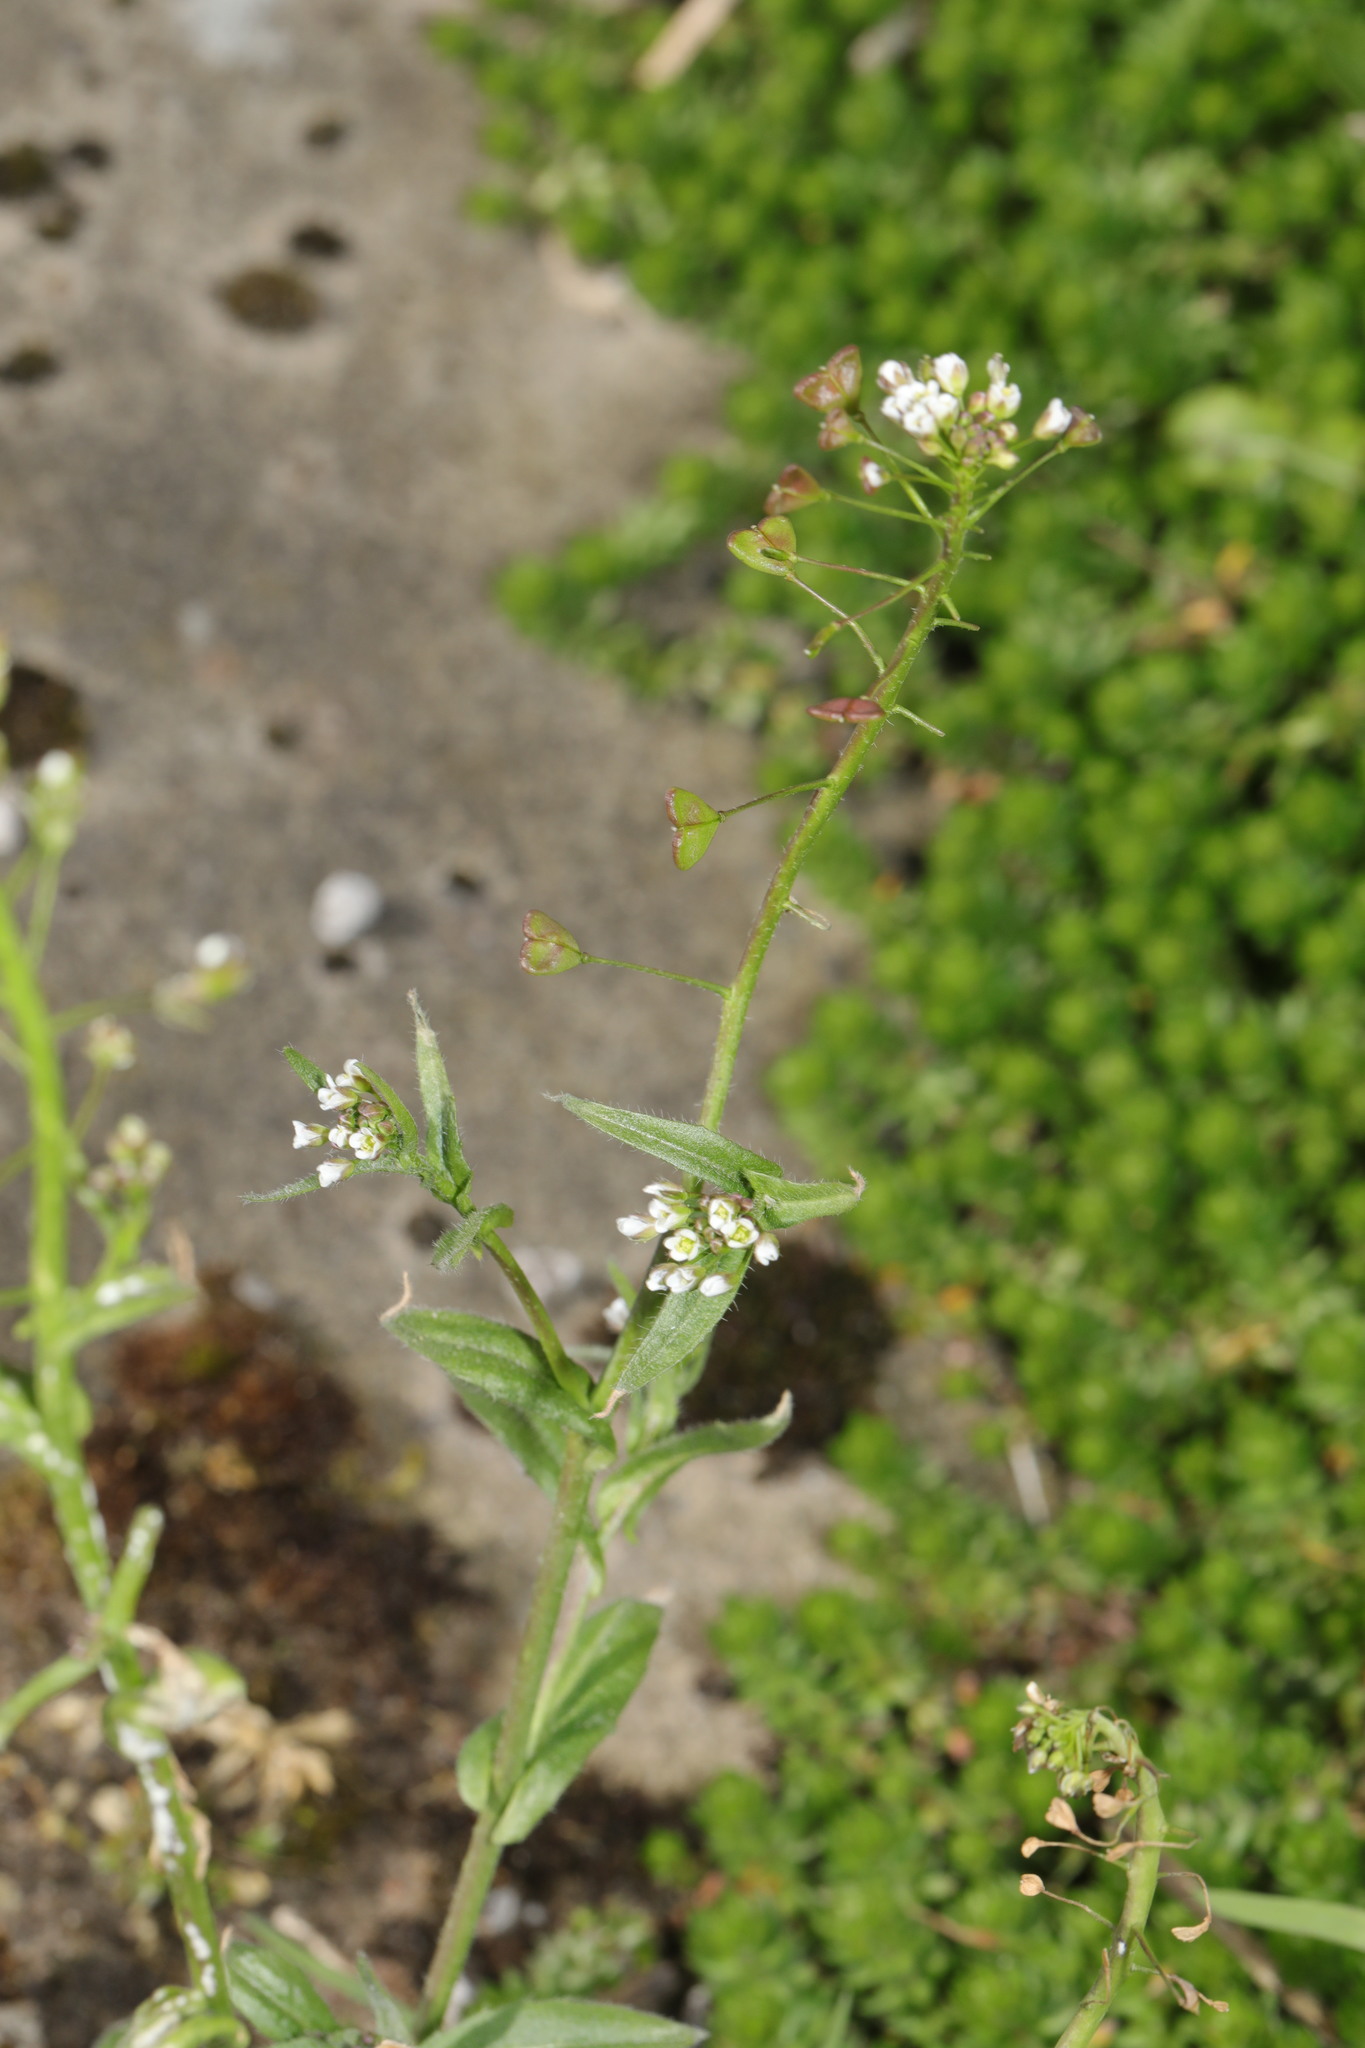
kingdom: Plantae
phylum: Tracheophyta
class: Magnoliopsida
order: Brassicales
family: Brassicaceae
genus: Capsella
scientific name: Capsella bursa-pastoris
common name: Shepherd's purse
